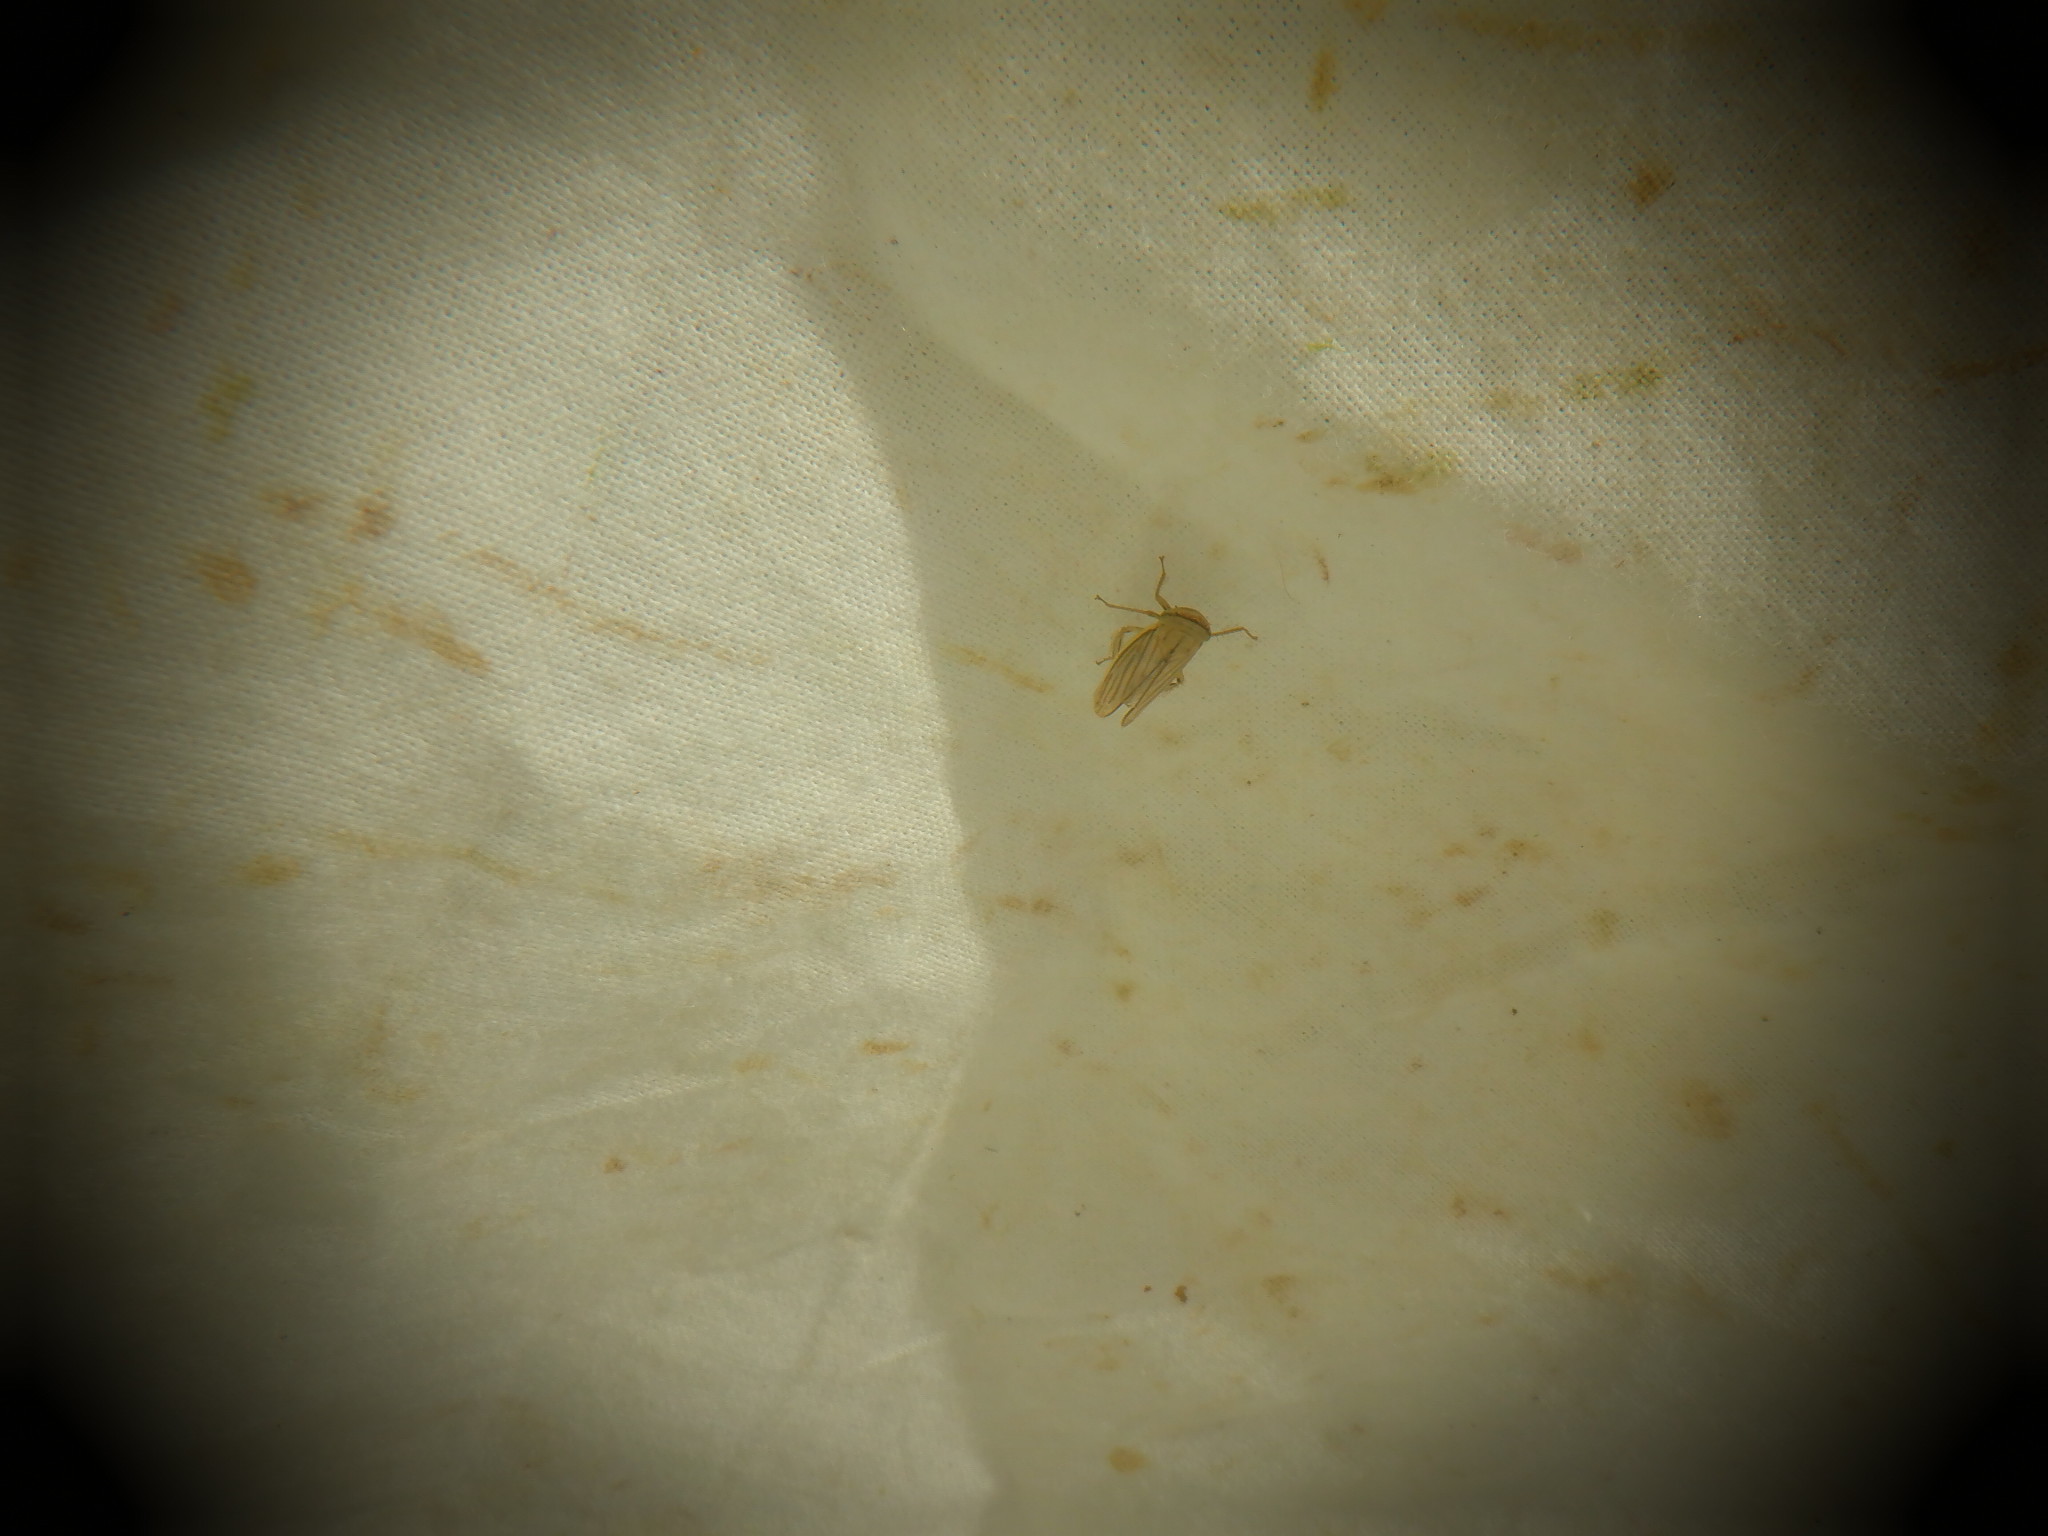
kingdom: Animalia
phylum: Arthropoda
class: Insecta
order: Hemiptera
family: Cicadellidae
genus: Athysanus
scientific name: Athysanus argentarius
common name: Silver leafhopper
